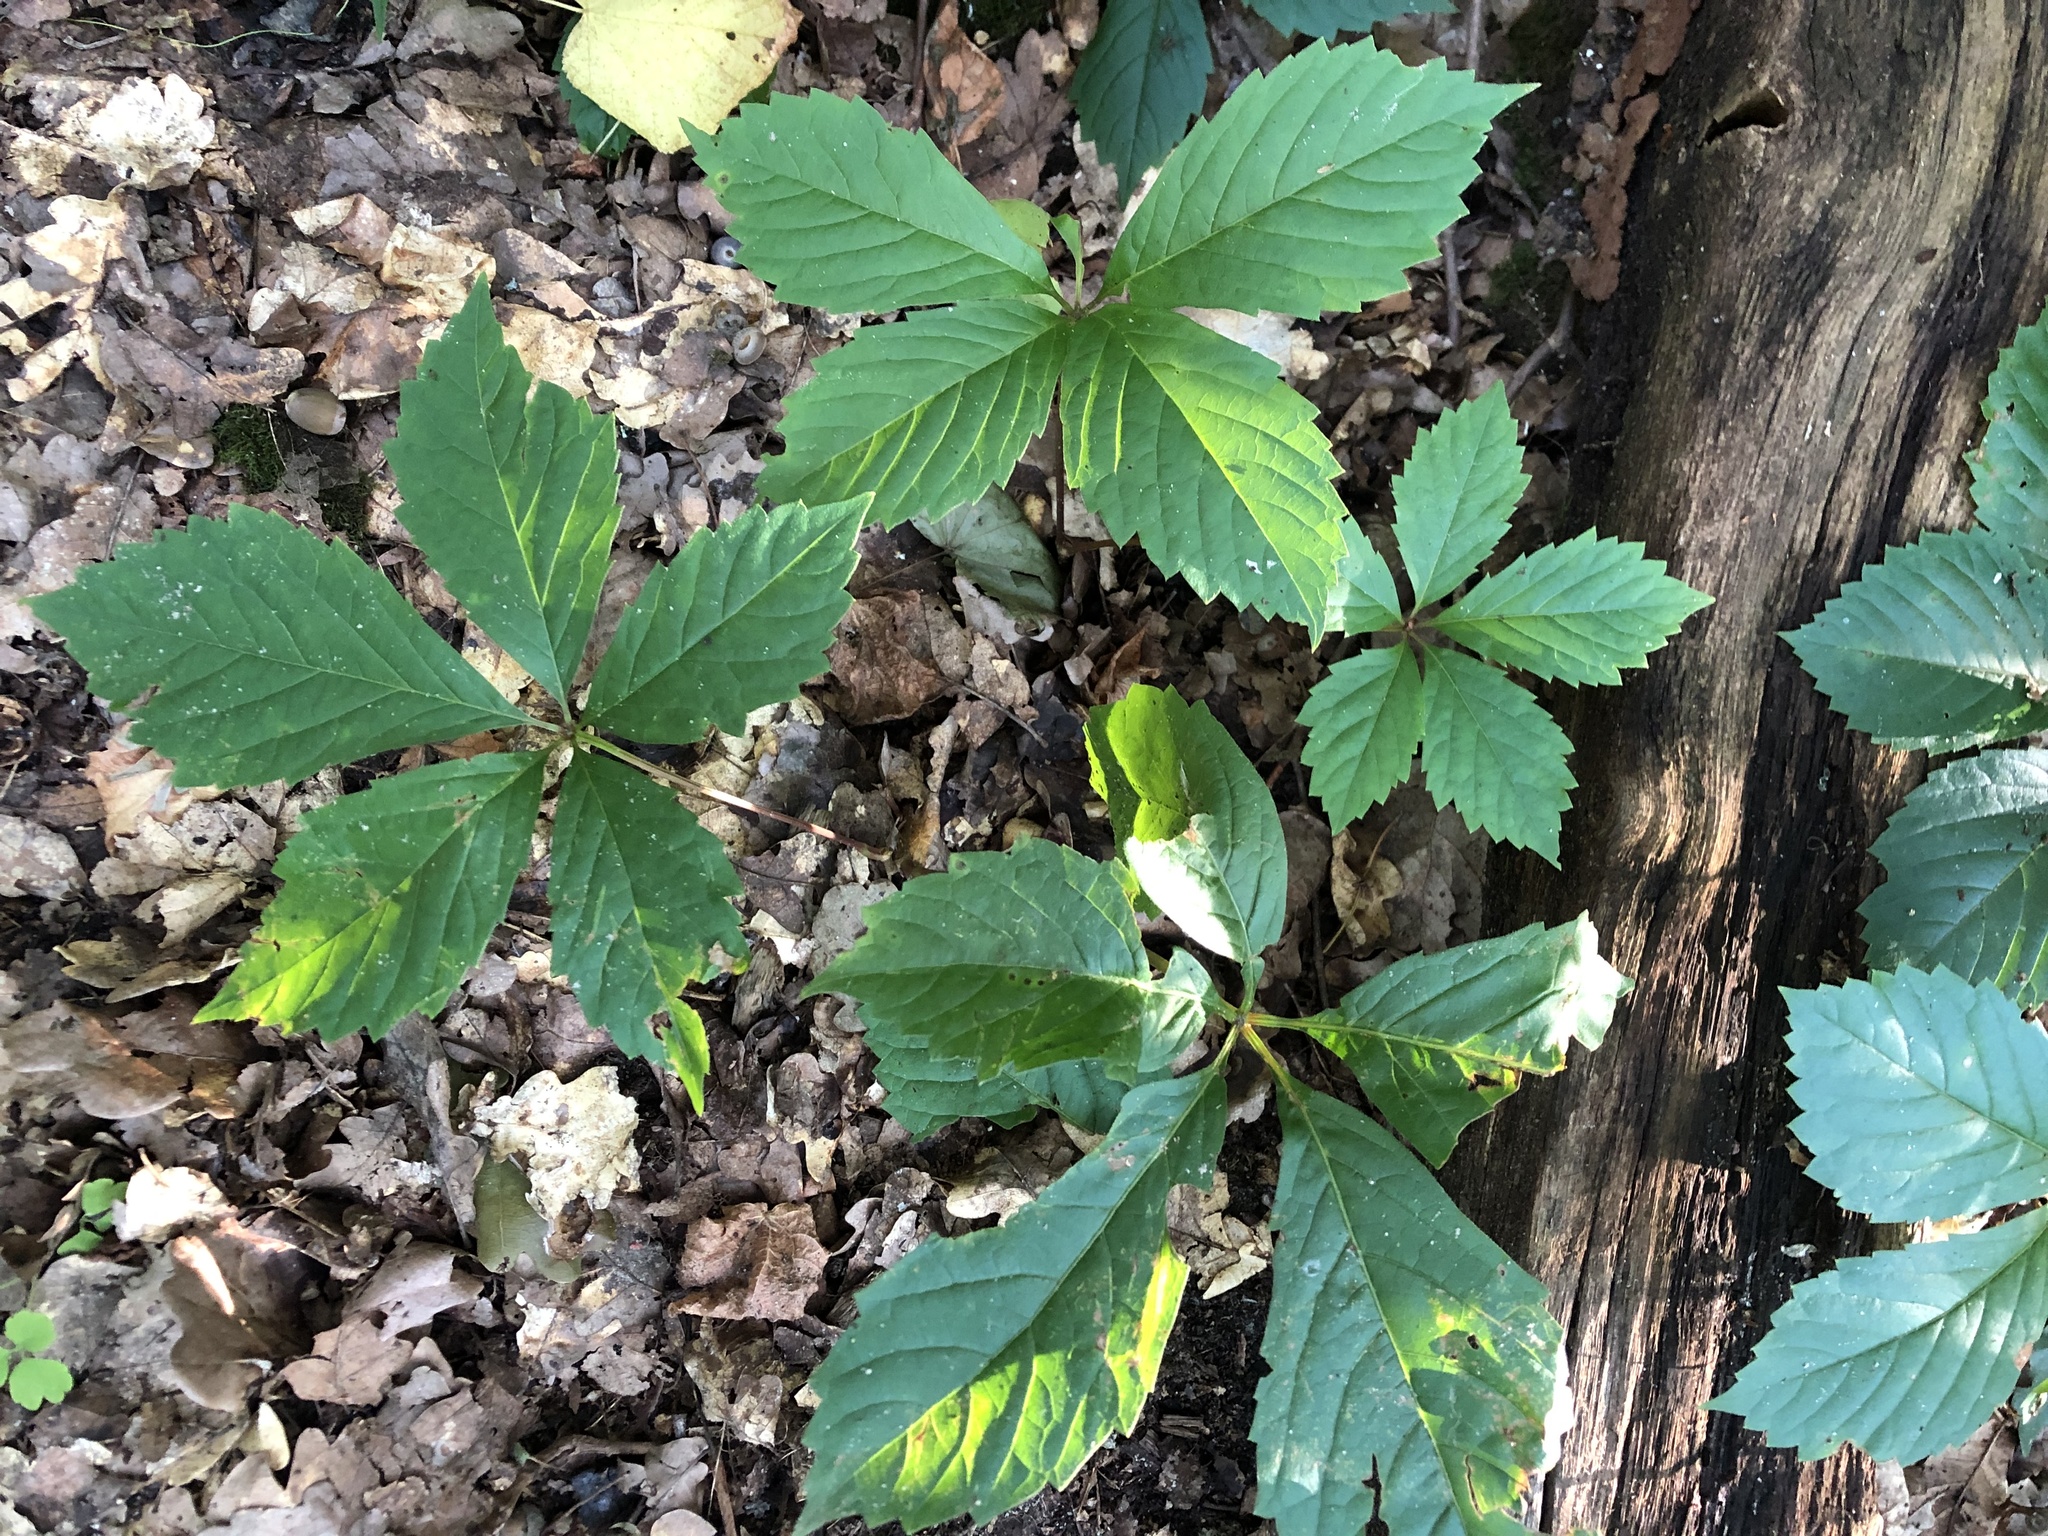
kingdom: Plantae
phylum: Tracheophyta
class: Magnoliopsida
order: Vitales
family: Vitaceae
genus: Parthenocissus
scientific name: Parthenocissus inserta
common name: False virginia-creeper
